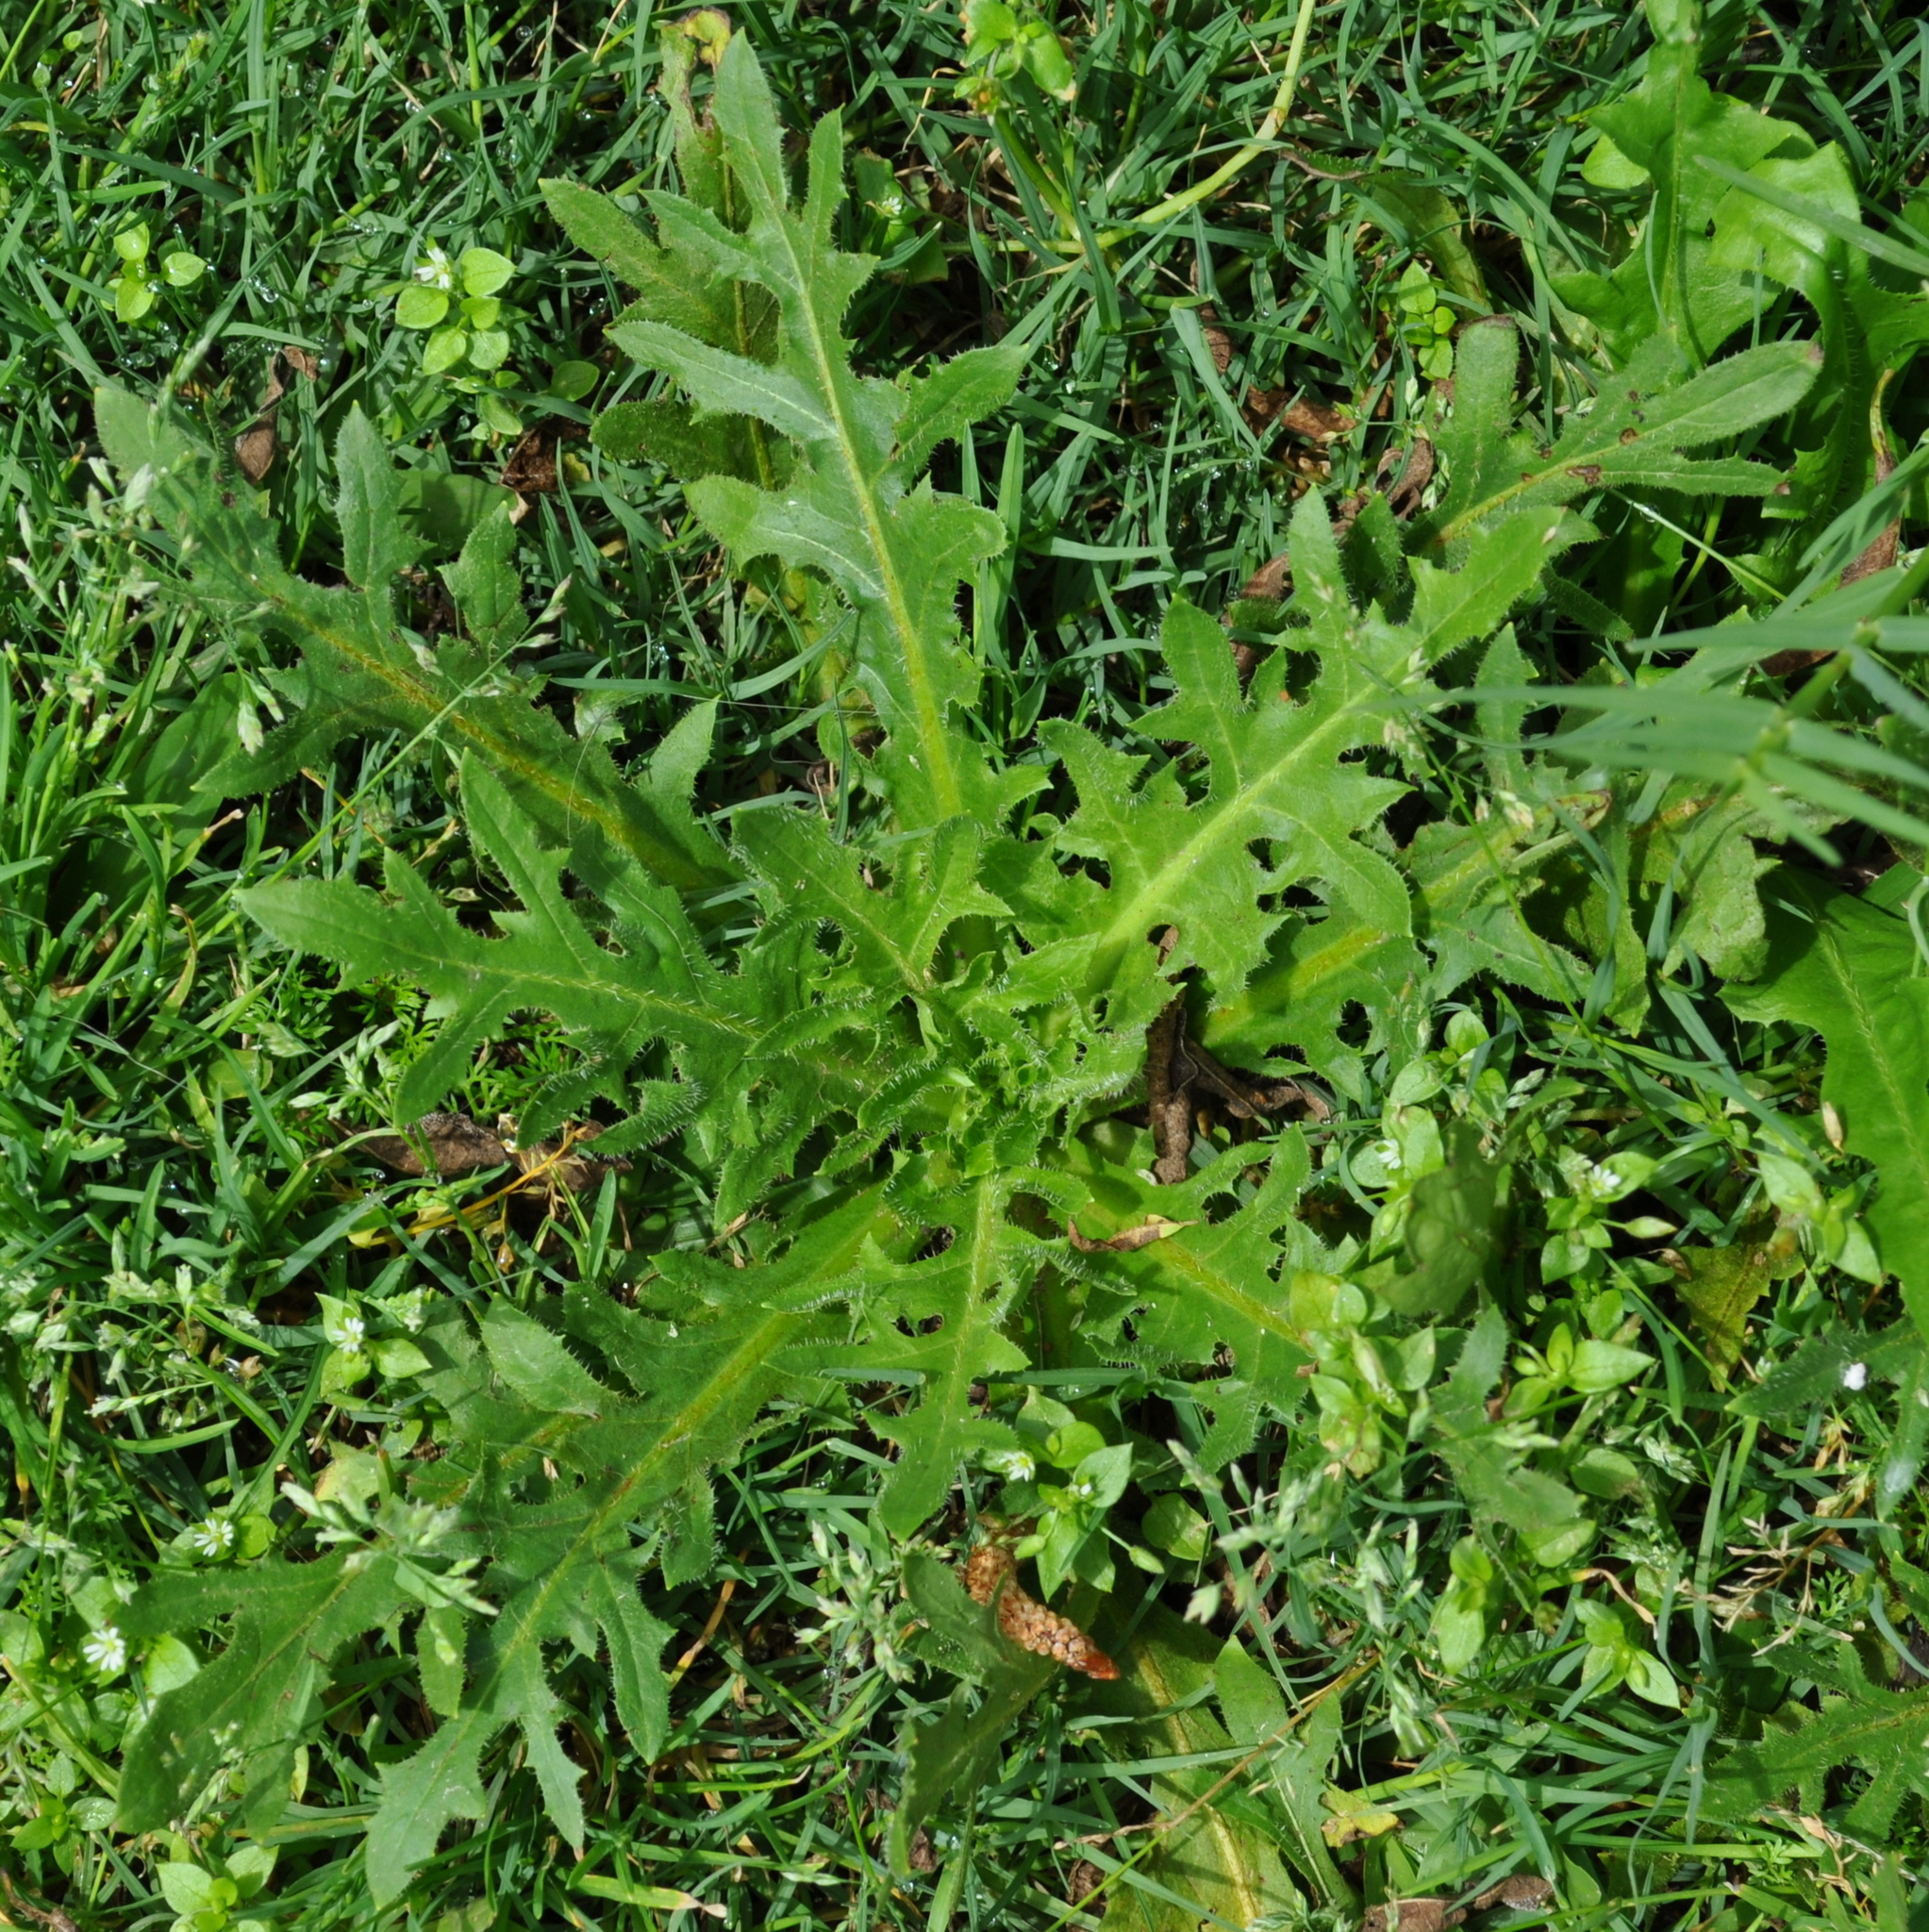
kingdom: Plantae
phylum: Tracheophyta
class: Magnoliopsida
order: Asterales
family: Asteraceae
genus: Hypochaeris
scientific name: Hypochaeris megapotamica
